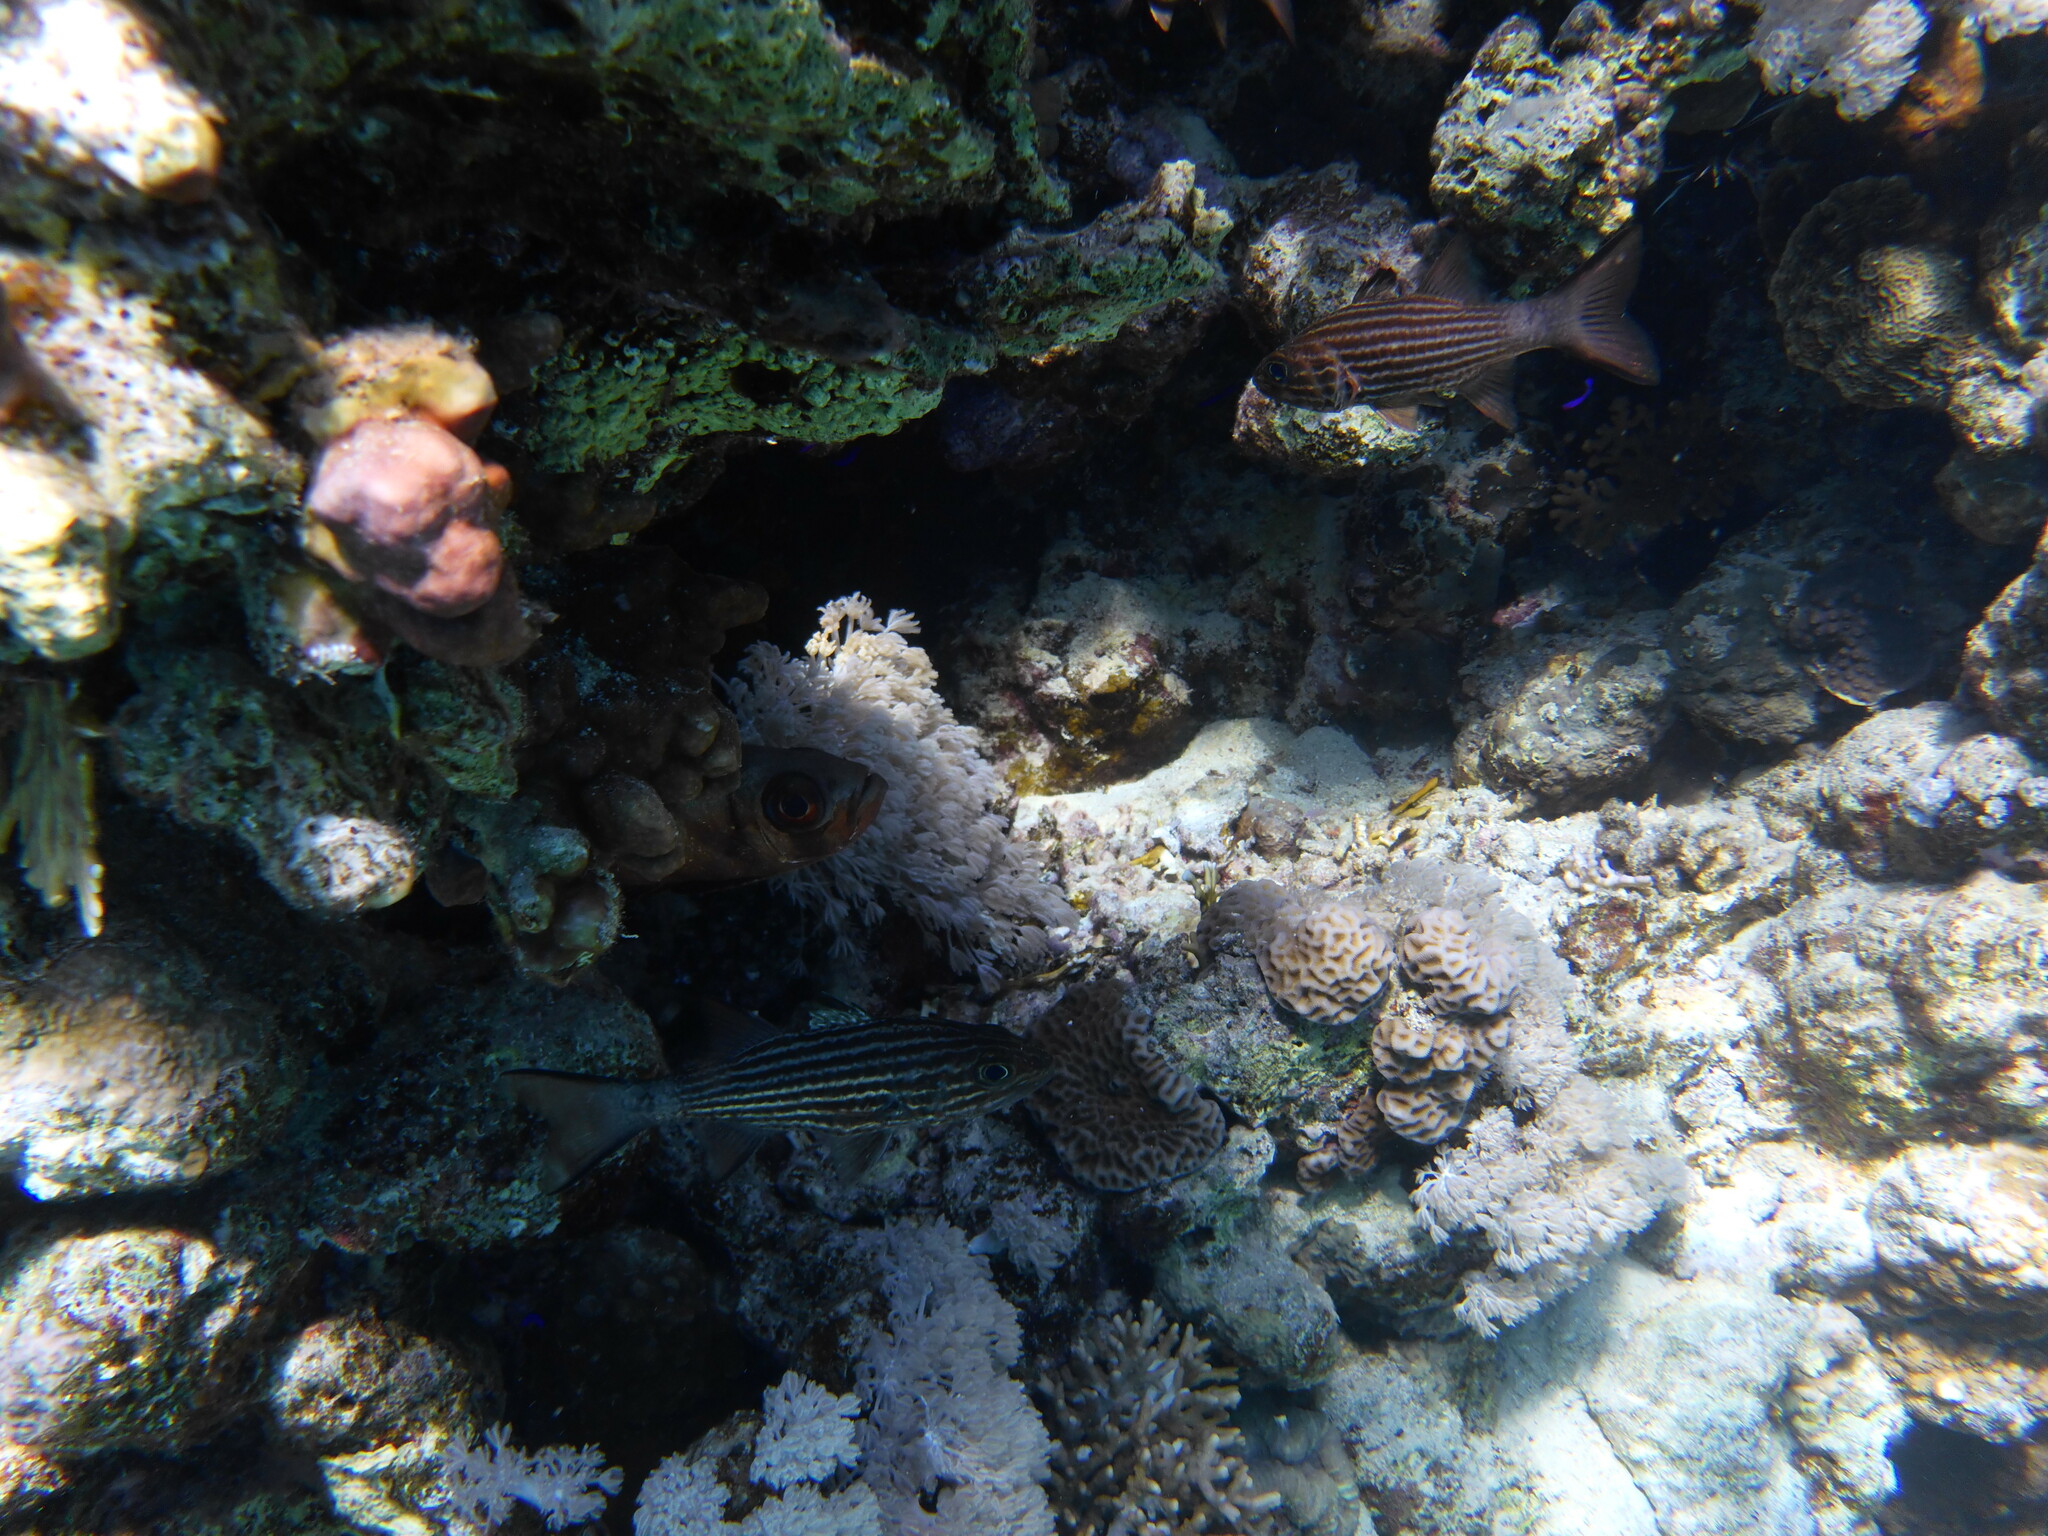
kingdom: Animalia
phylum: Chordata
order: Perciformes
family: Apogonidae
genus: Cheilodipterus
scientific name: Cheilodipterus macrodon
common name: Eight-lined cardinalfish
